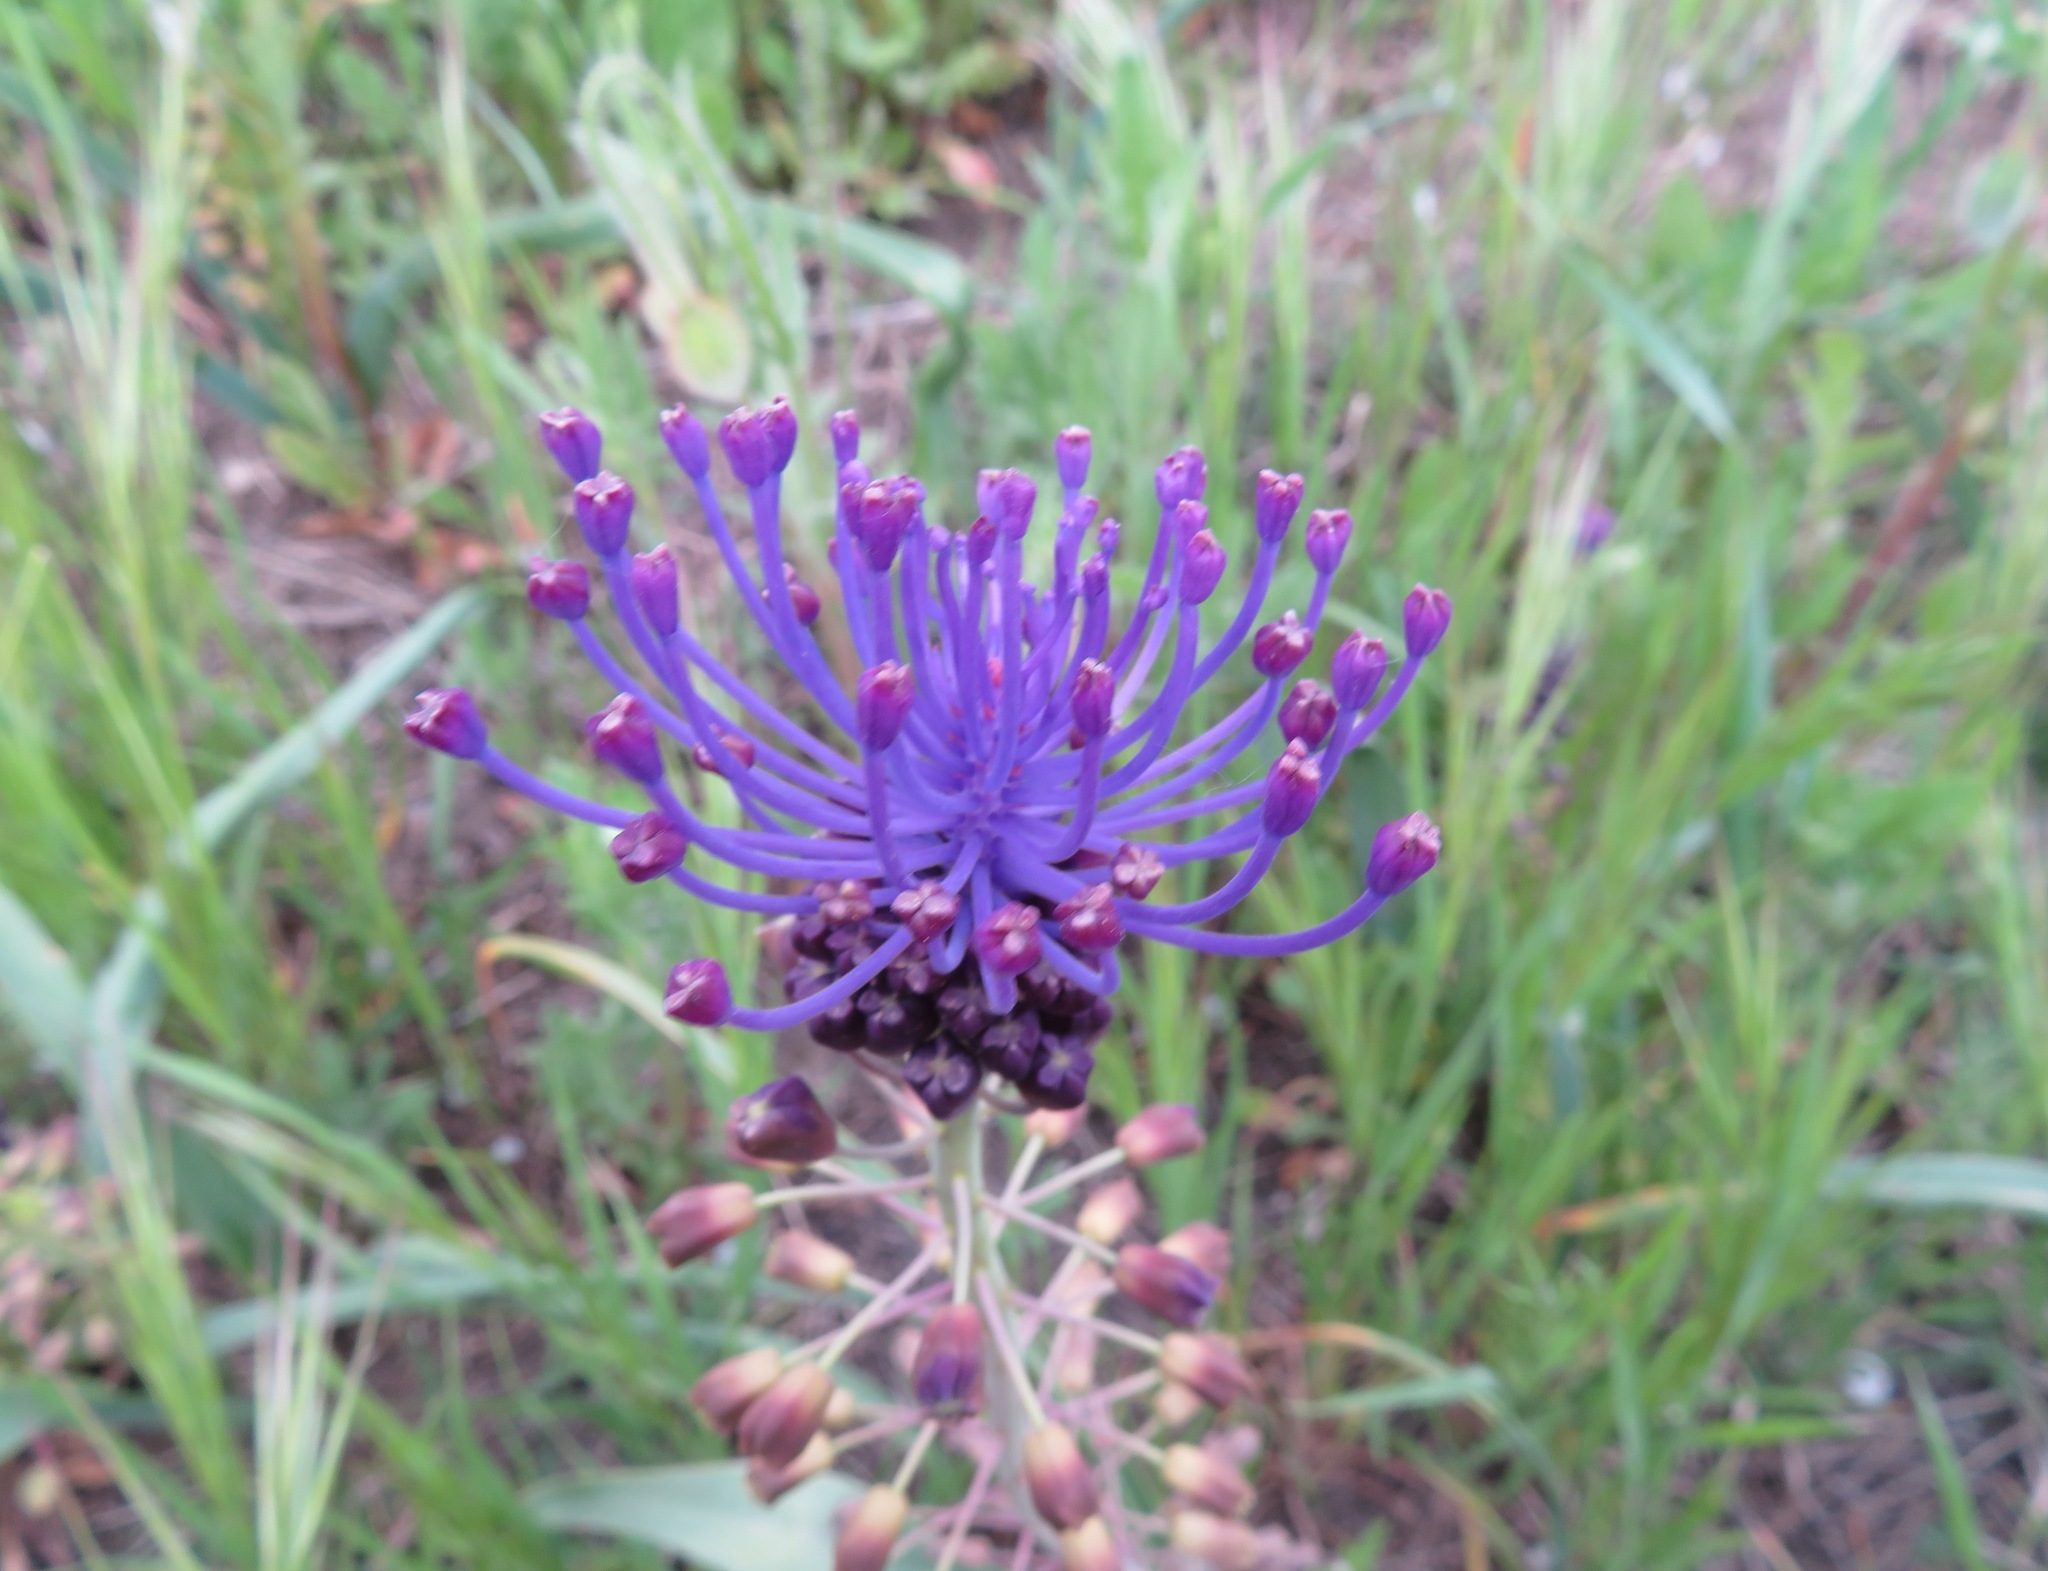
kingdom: Plantae
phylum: Tracheophyta
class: Liliopsida
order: Asparagales
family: Asparagaceae
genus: Muscari
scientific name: Muscari comosum
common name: Tassel hyacinth
